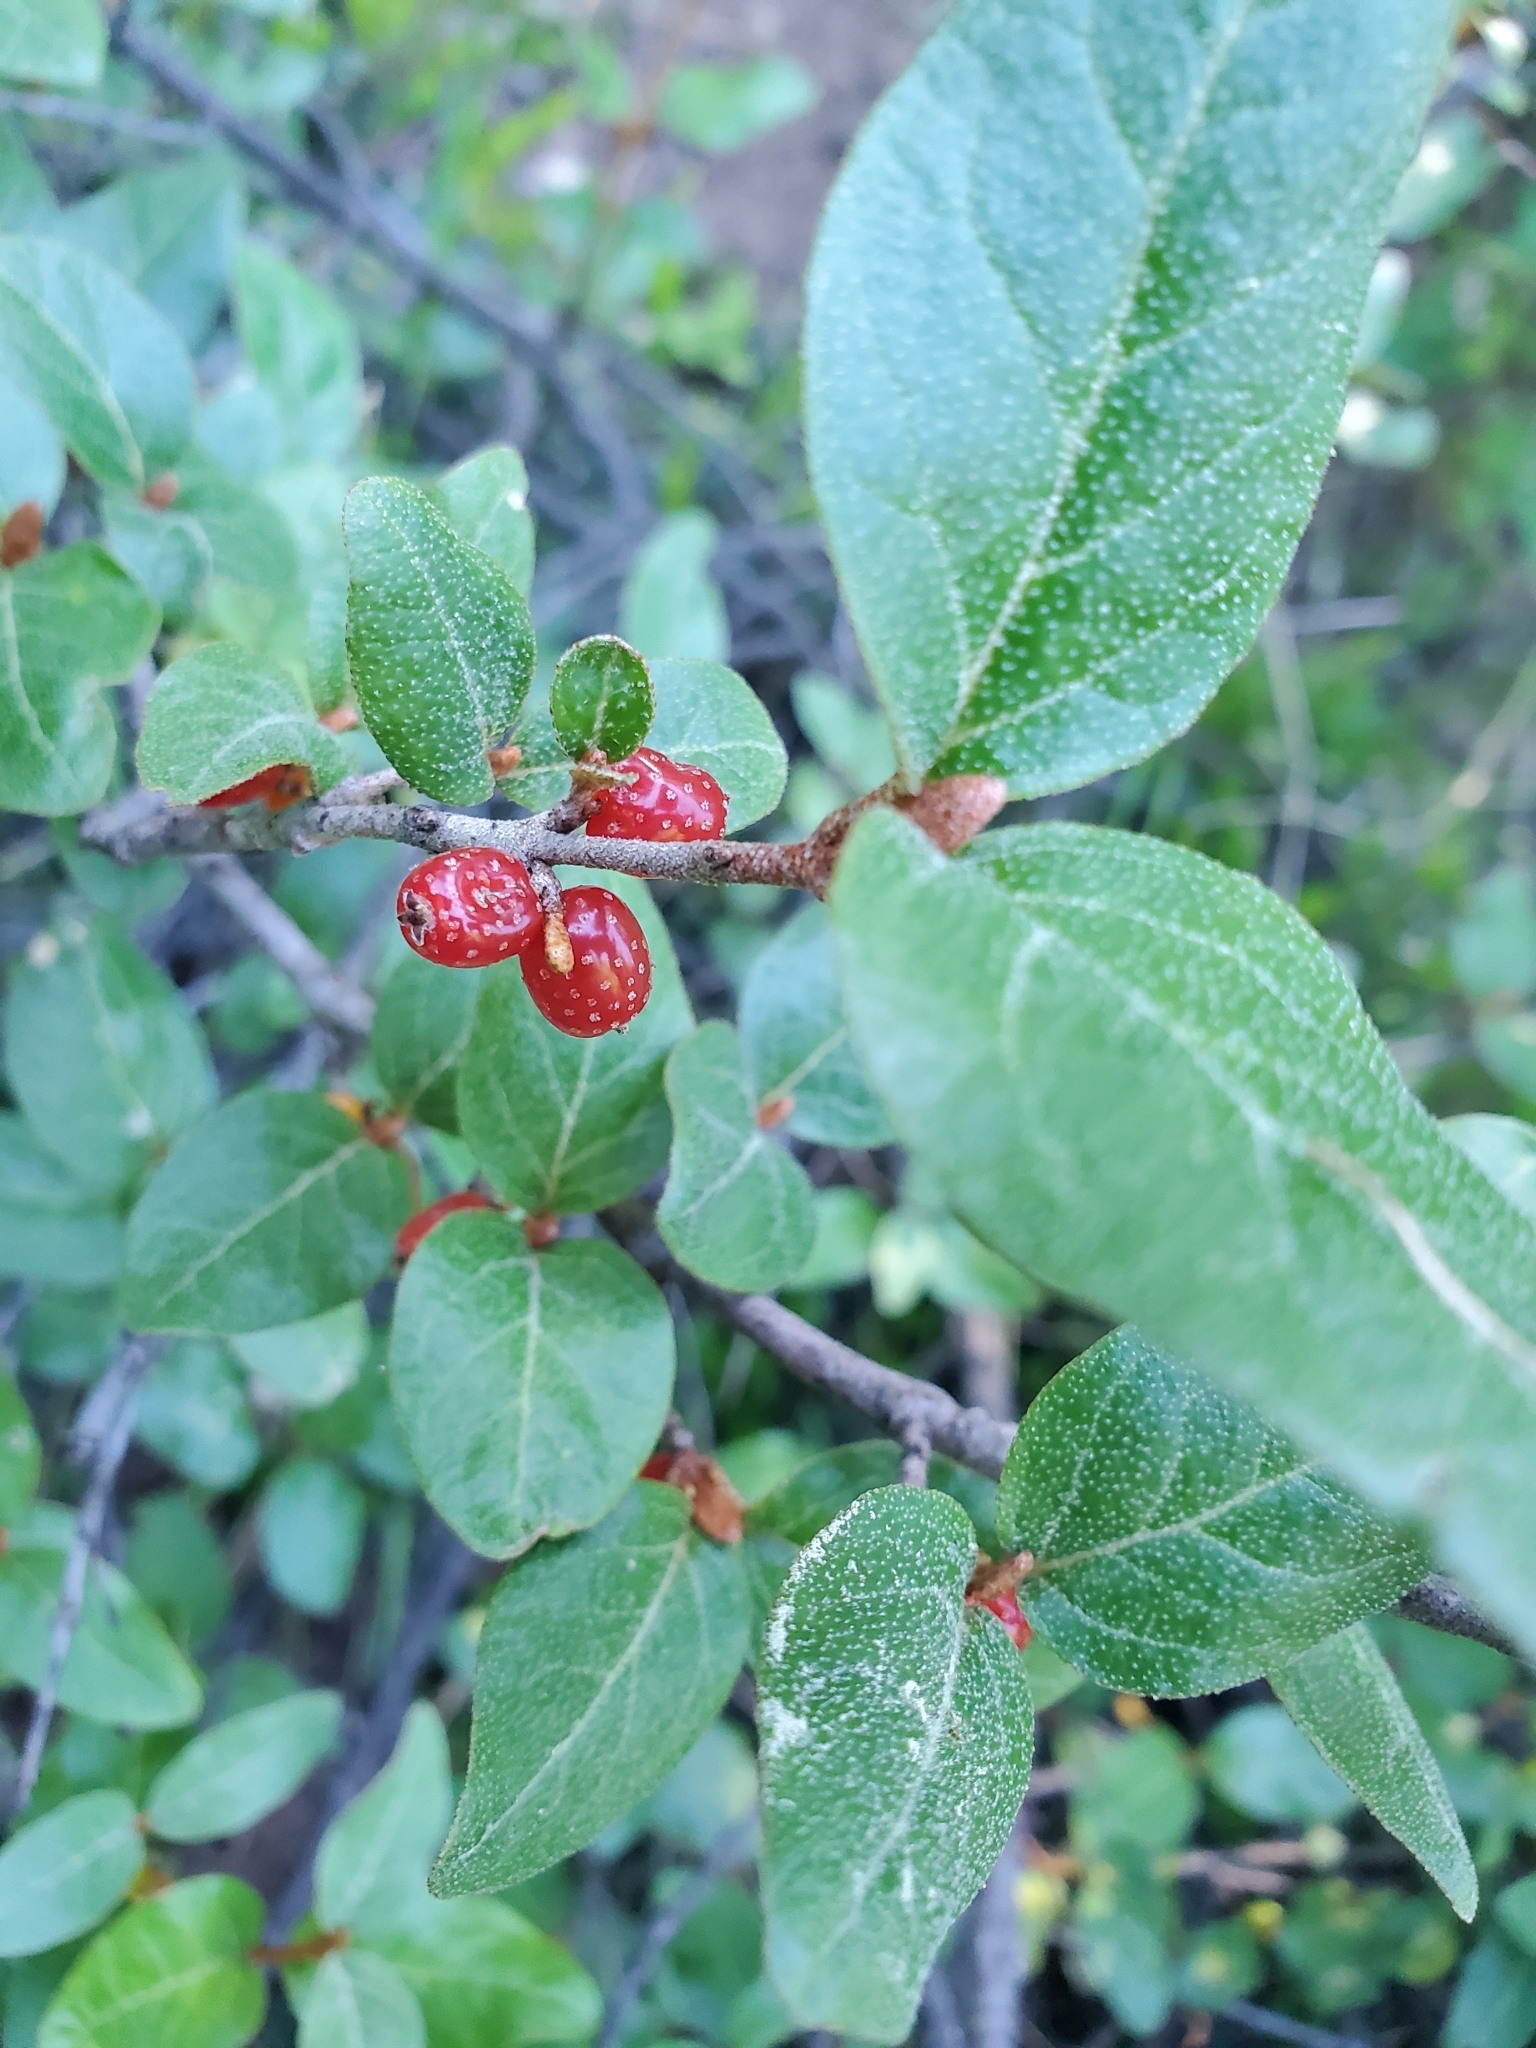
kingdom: Plantae
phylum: Tracheophyta
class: Magnoliopsida
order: Rosales
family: Elaeagnaceae
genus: Shepherdia
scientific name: Shepherdia canadensis
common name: Soapberry
